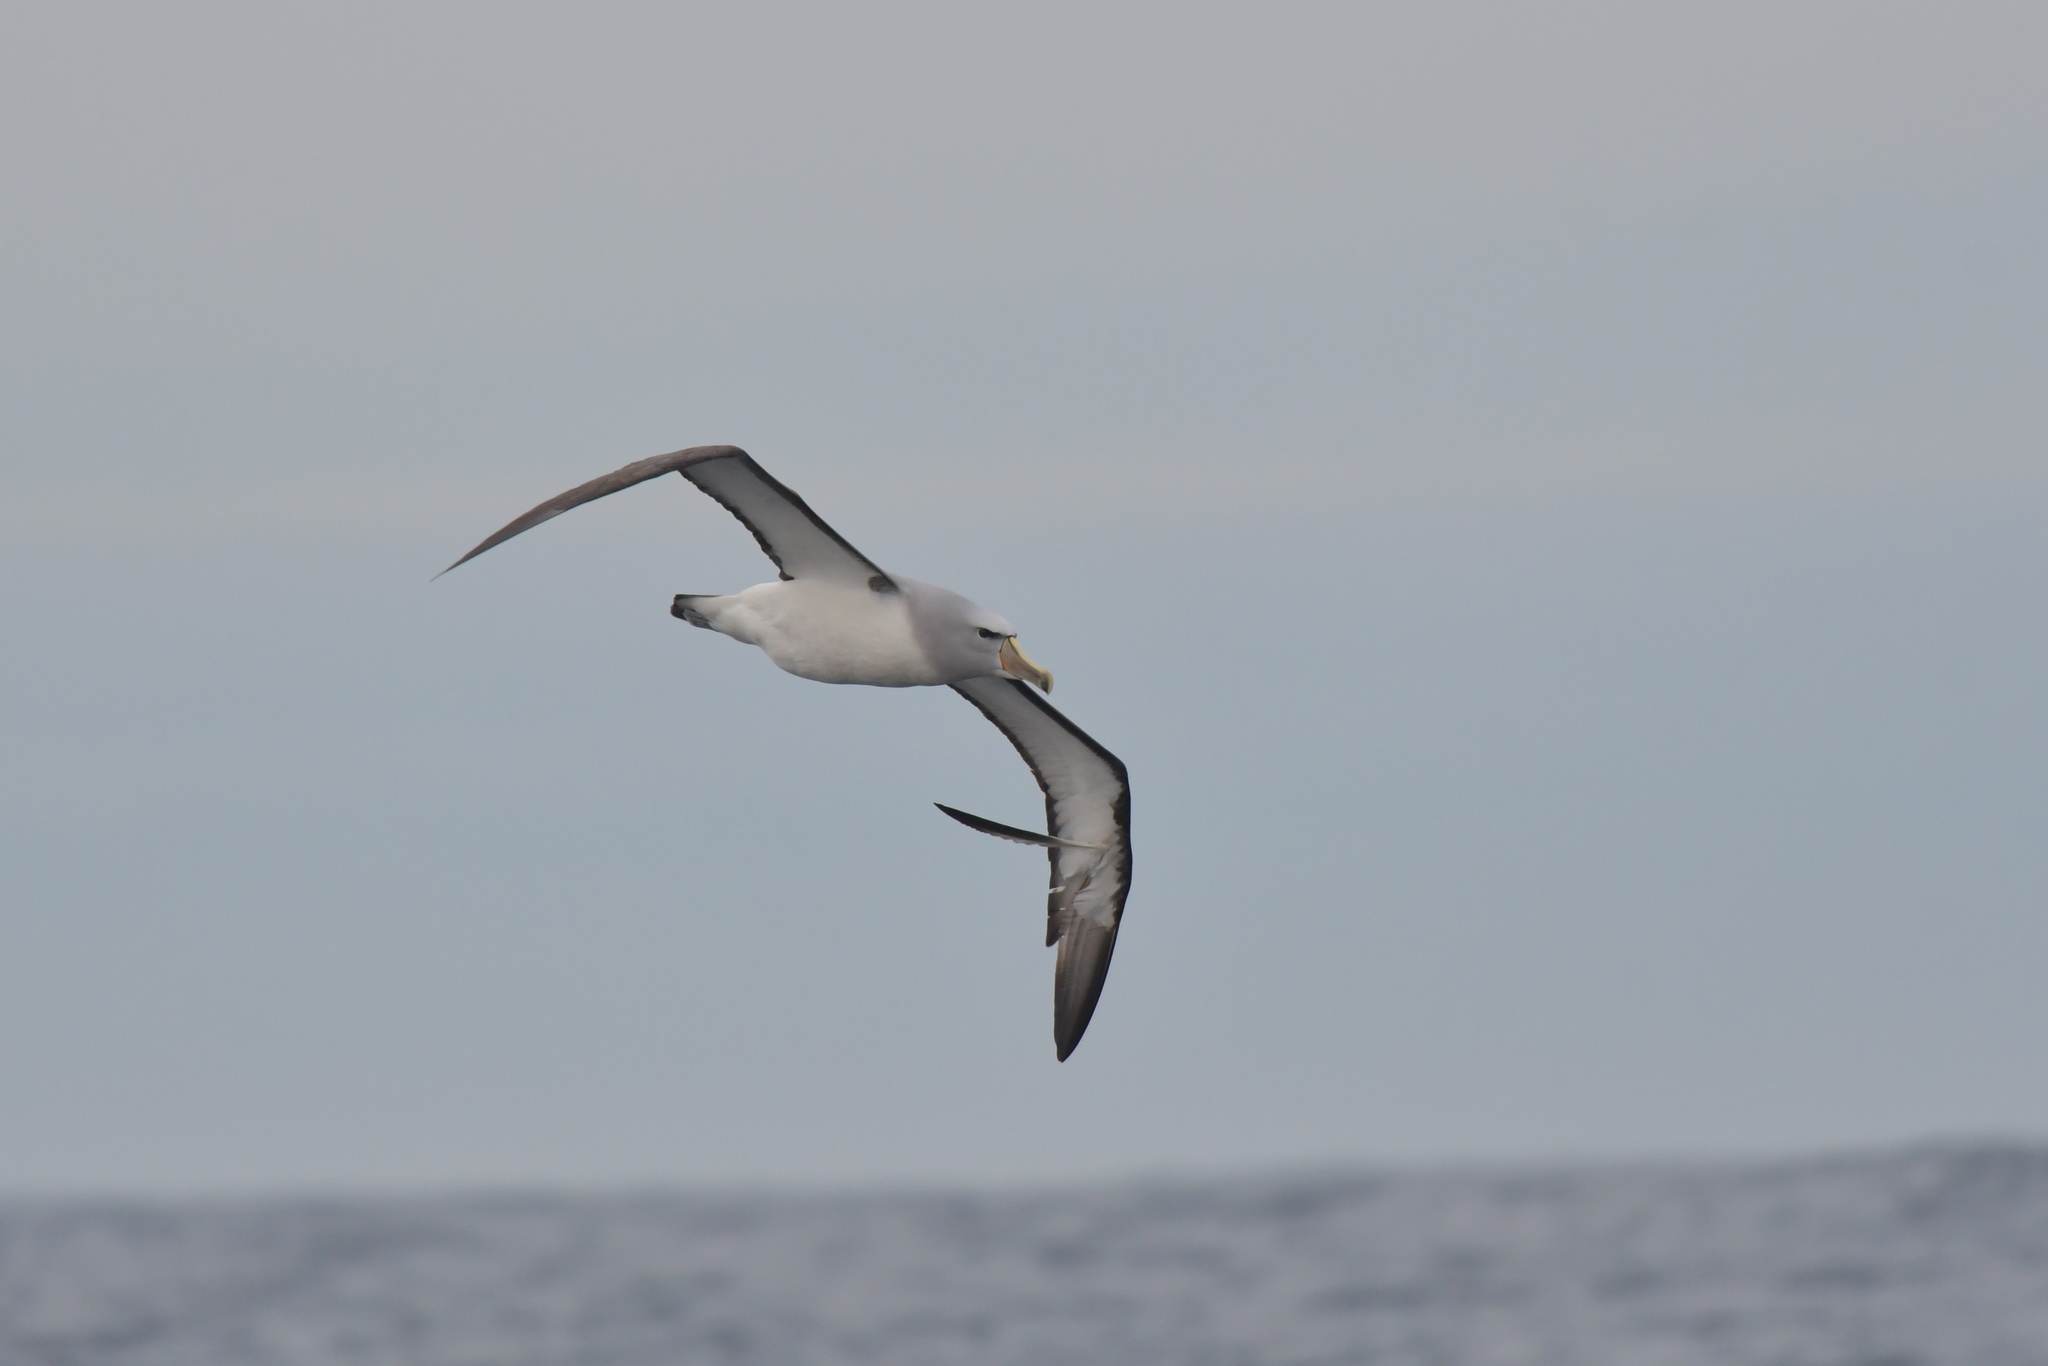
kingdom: Animalia
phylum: Chordata
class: Aves
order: Procellariiformes
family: Diomedeidae
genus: Thalassarche
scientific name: Thalassarche salvini
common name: Salvin's albatross
